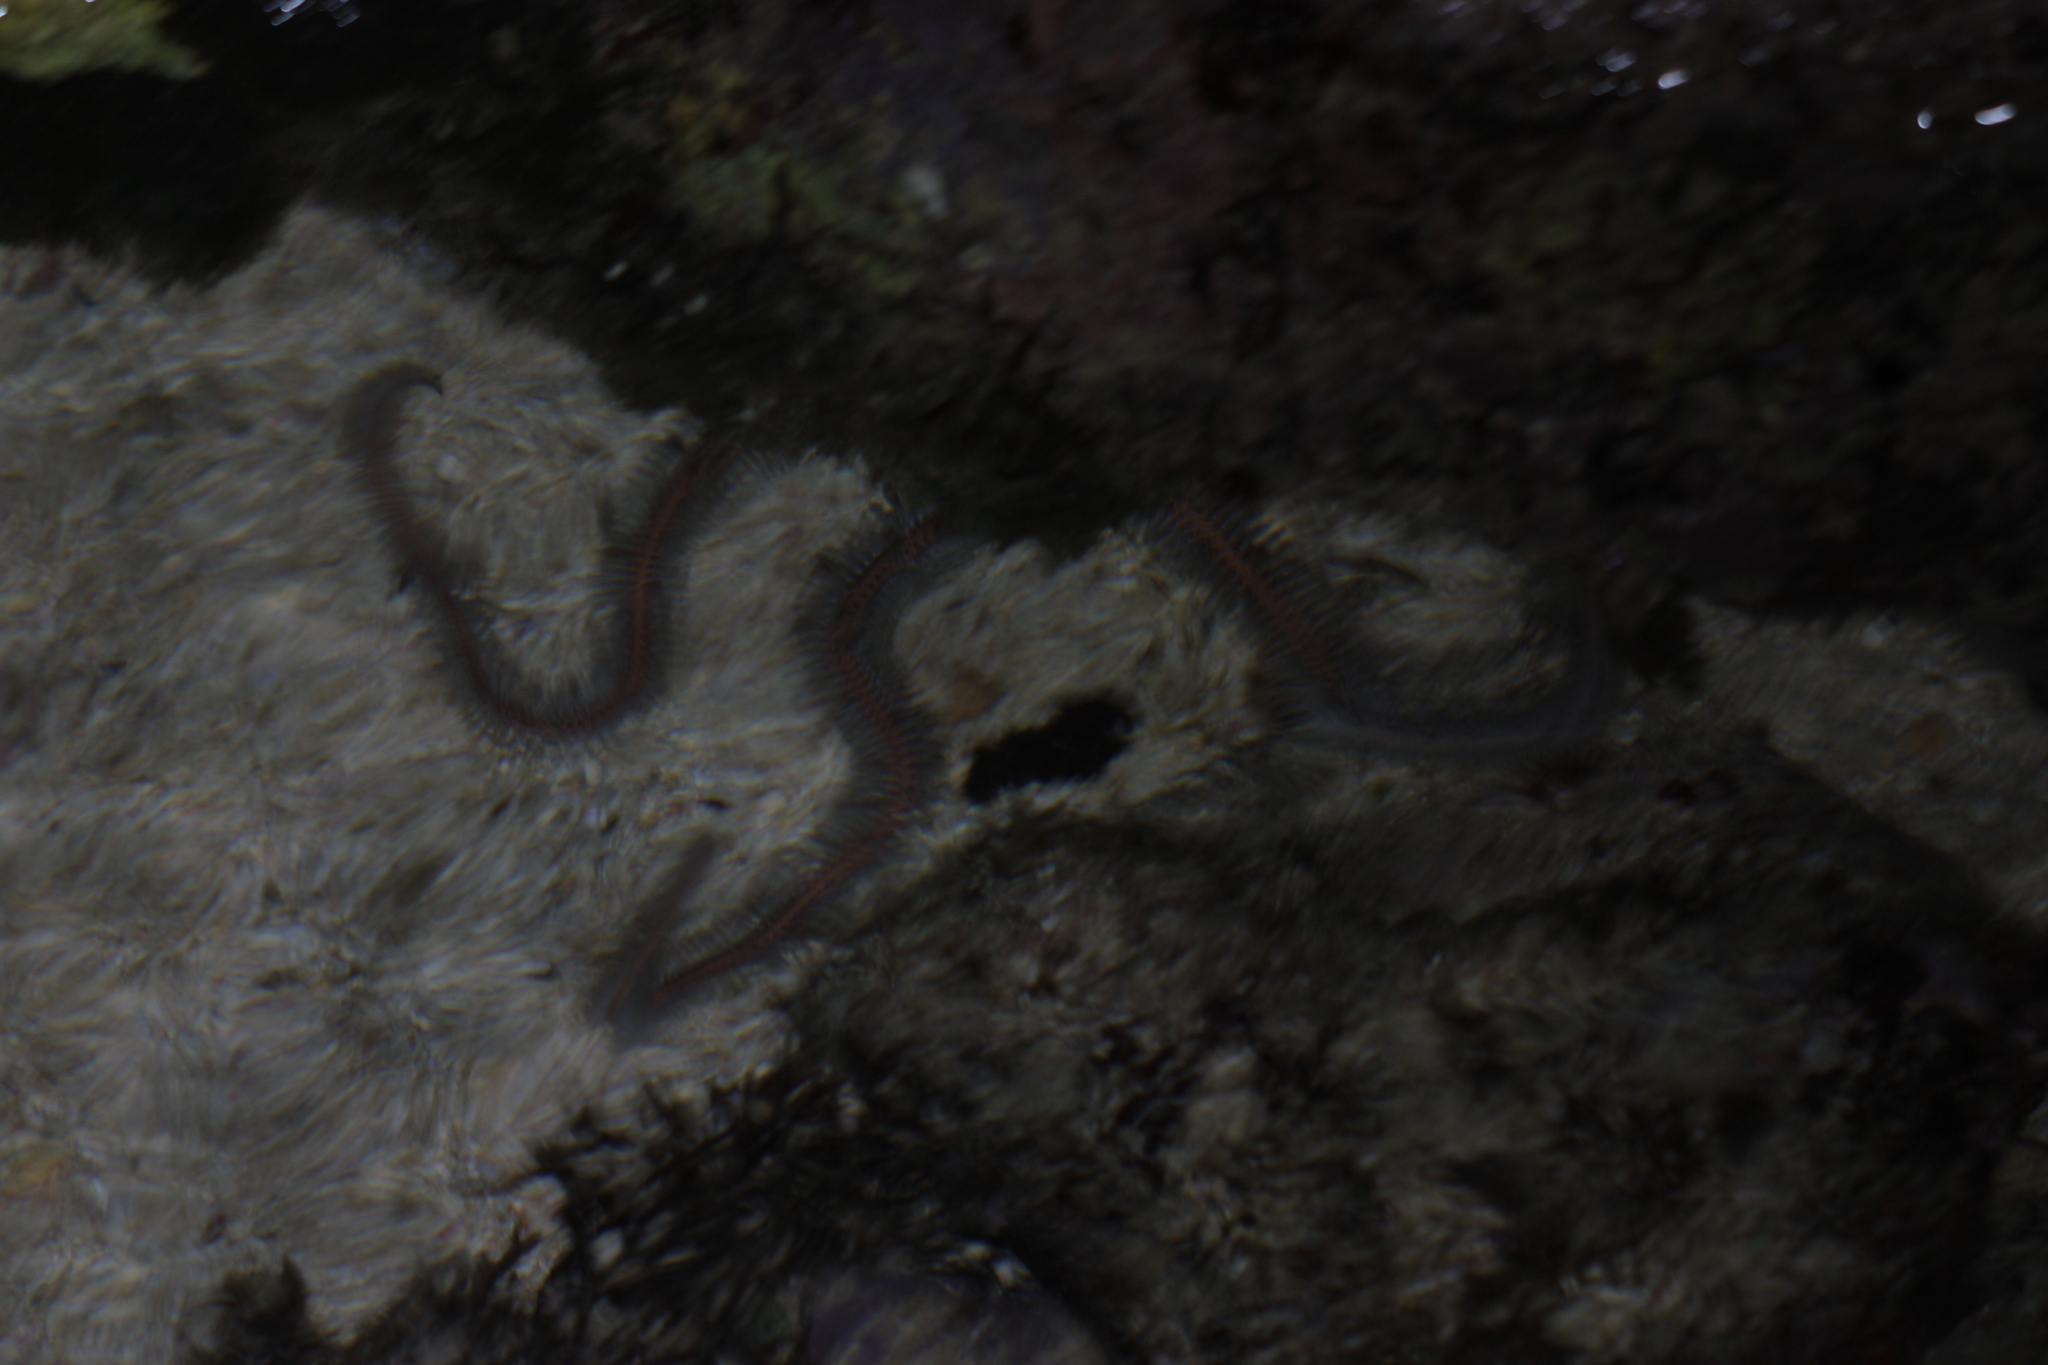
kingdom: Animalia
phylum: Echinodermata
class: Ophiuroidea
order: Ophiacanthida
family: Ophiocomidae
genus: Ophiomastix
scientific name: Ophiomastix annulosa
